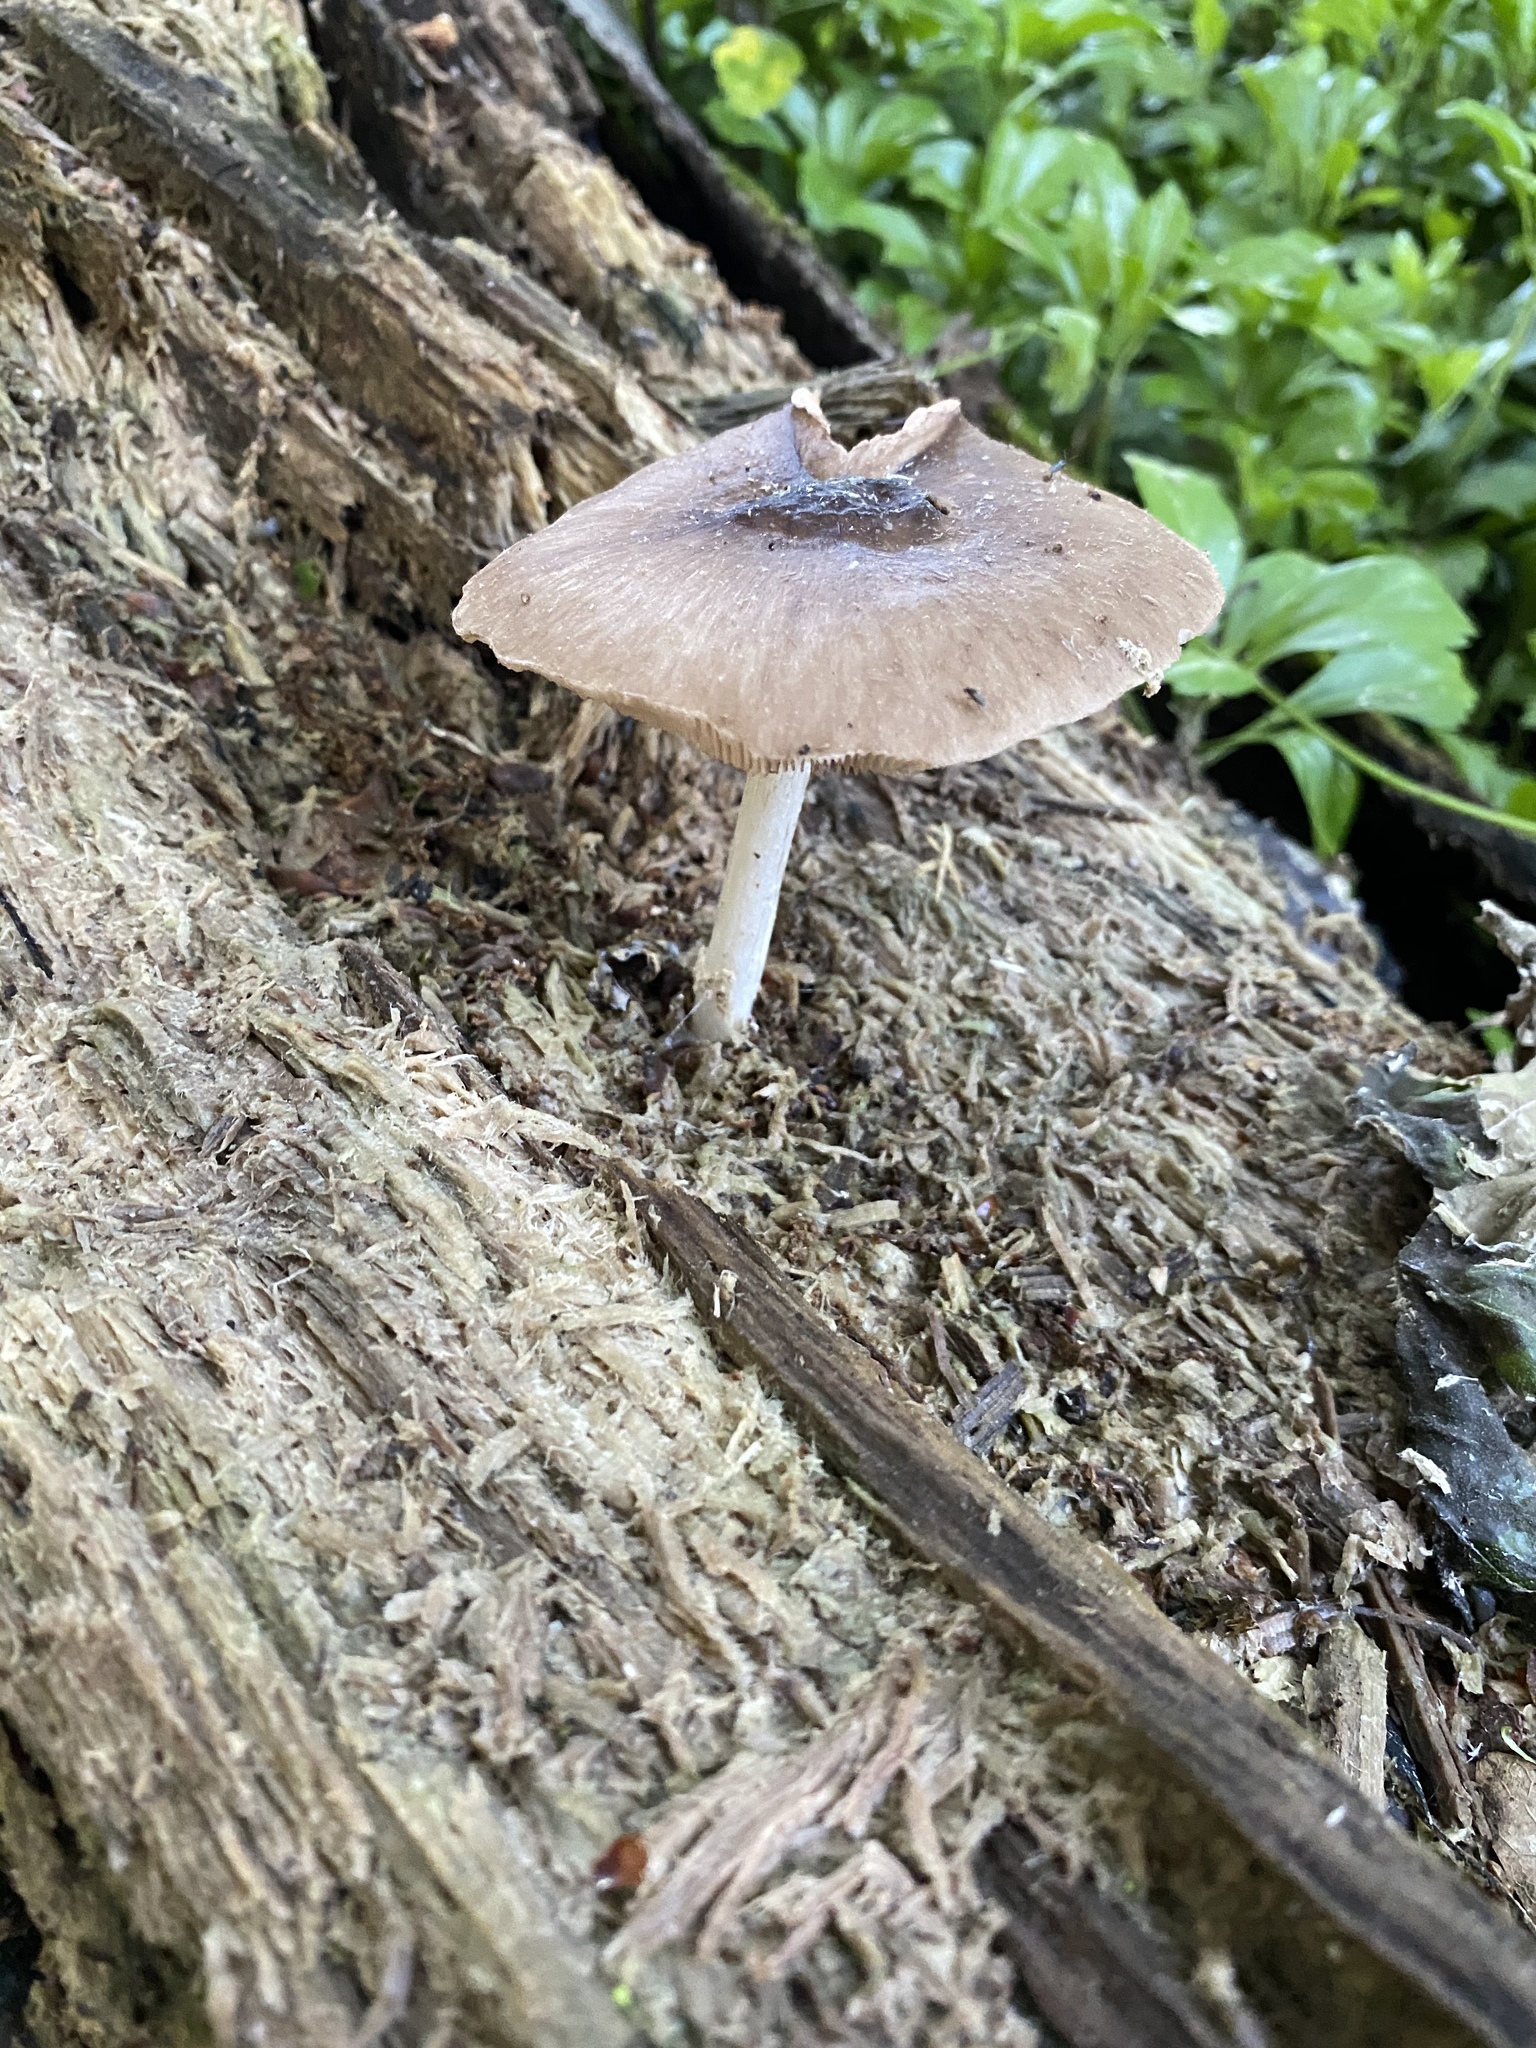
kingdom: Fungi
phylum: Basidiomycota
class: Agaricomycetes
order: Agaricales
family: Pluteaceae
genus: Pluteus
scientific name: Pluteus cervinus
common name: Deer shield
